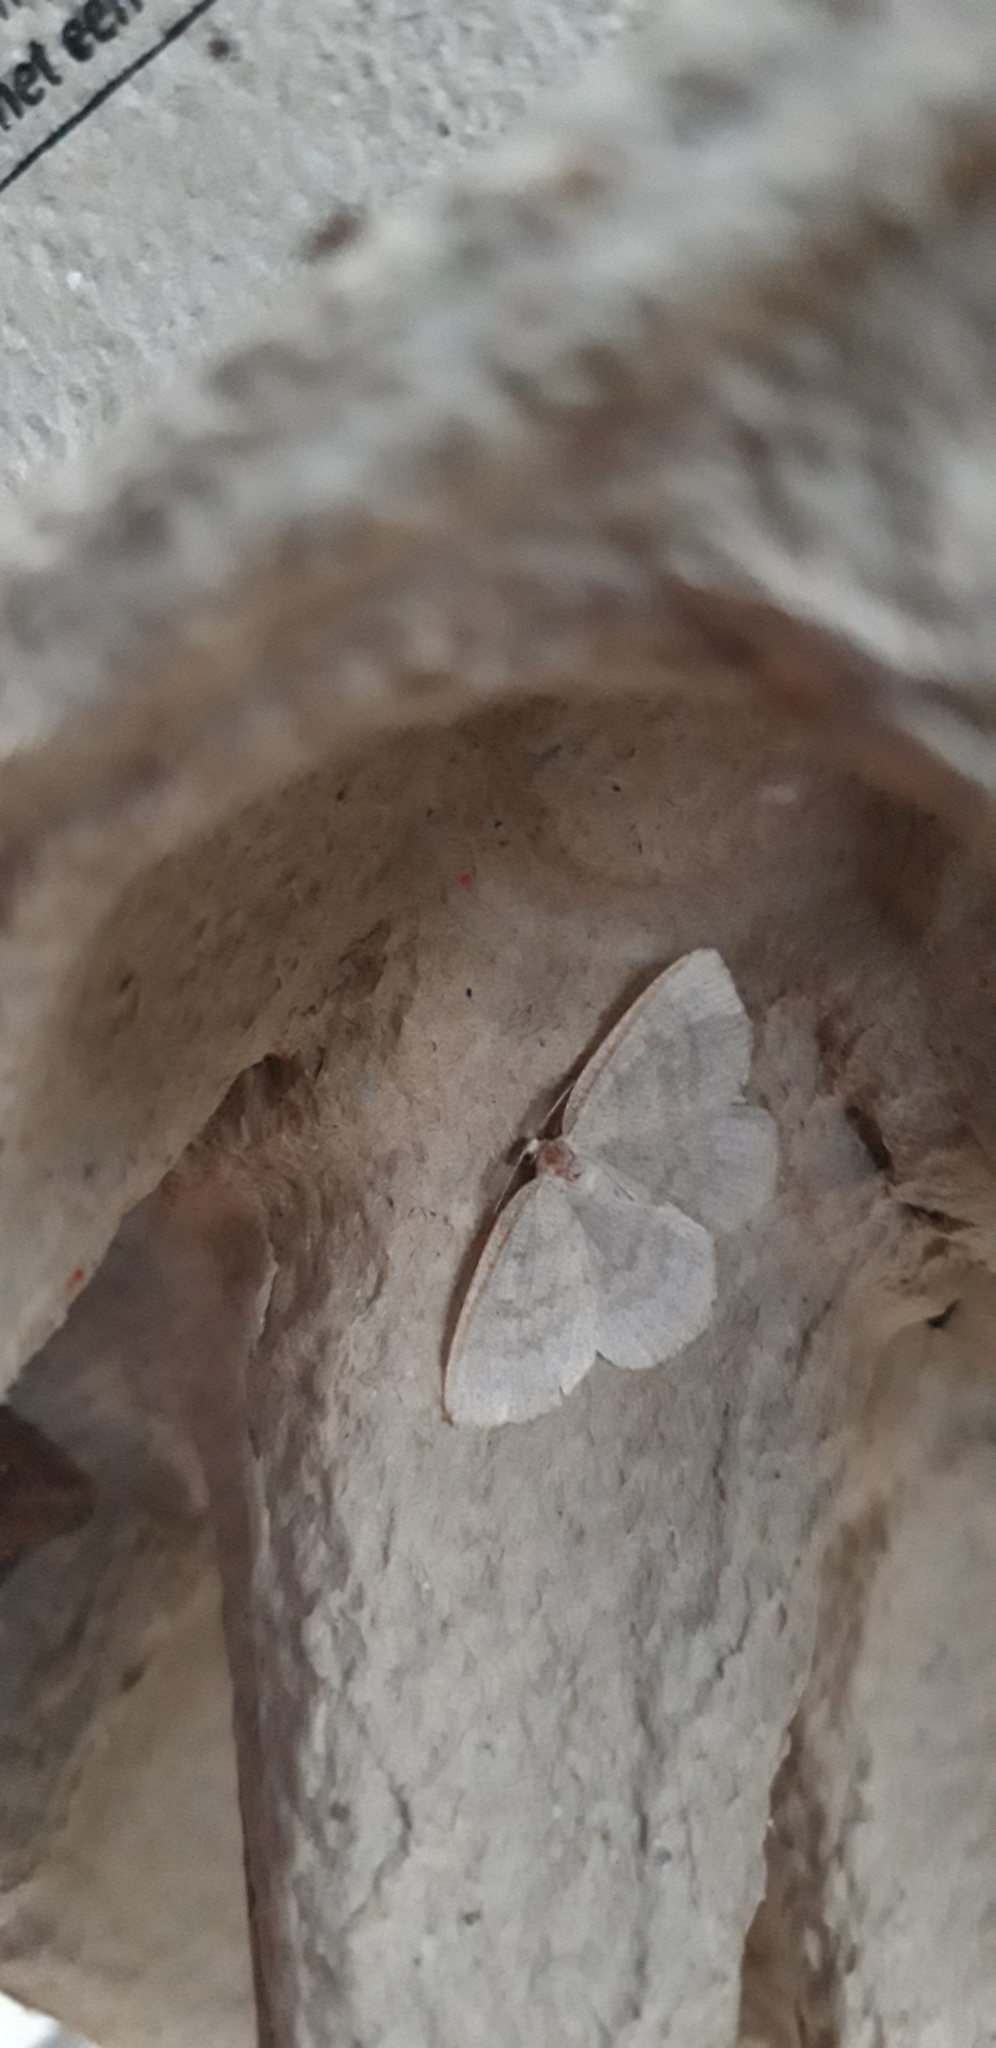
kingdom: Animalia
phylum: Arthropoda
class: Insecta
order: Lepidoptera
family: Geometridae
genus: Cabera
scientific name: Cabera exanthemata
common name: Common wave
